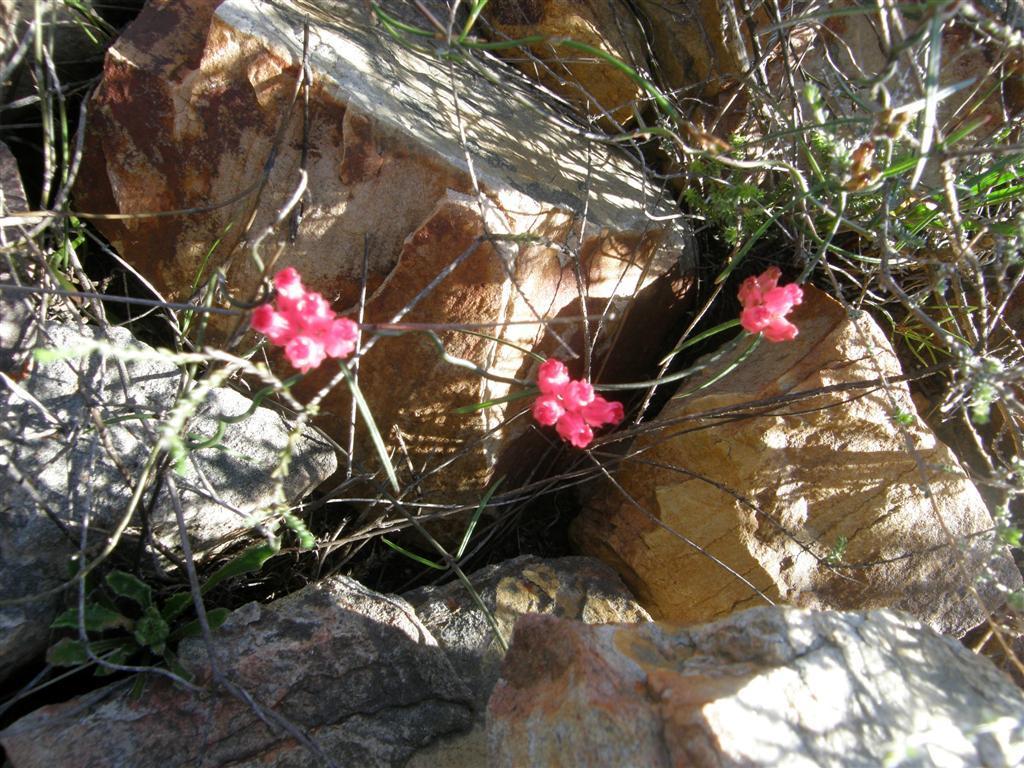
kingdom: Plantae
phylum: Tracheophyta
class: Magnoliopsida
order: Gentianales
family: Apocynaceae
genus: Microloma
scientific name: Microloma tenuifolium
